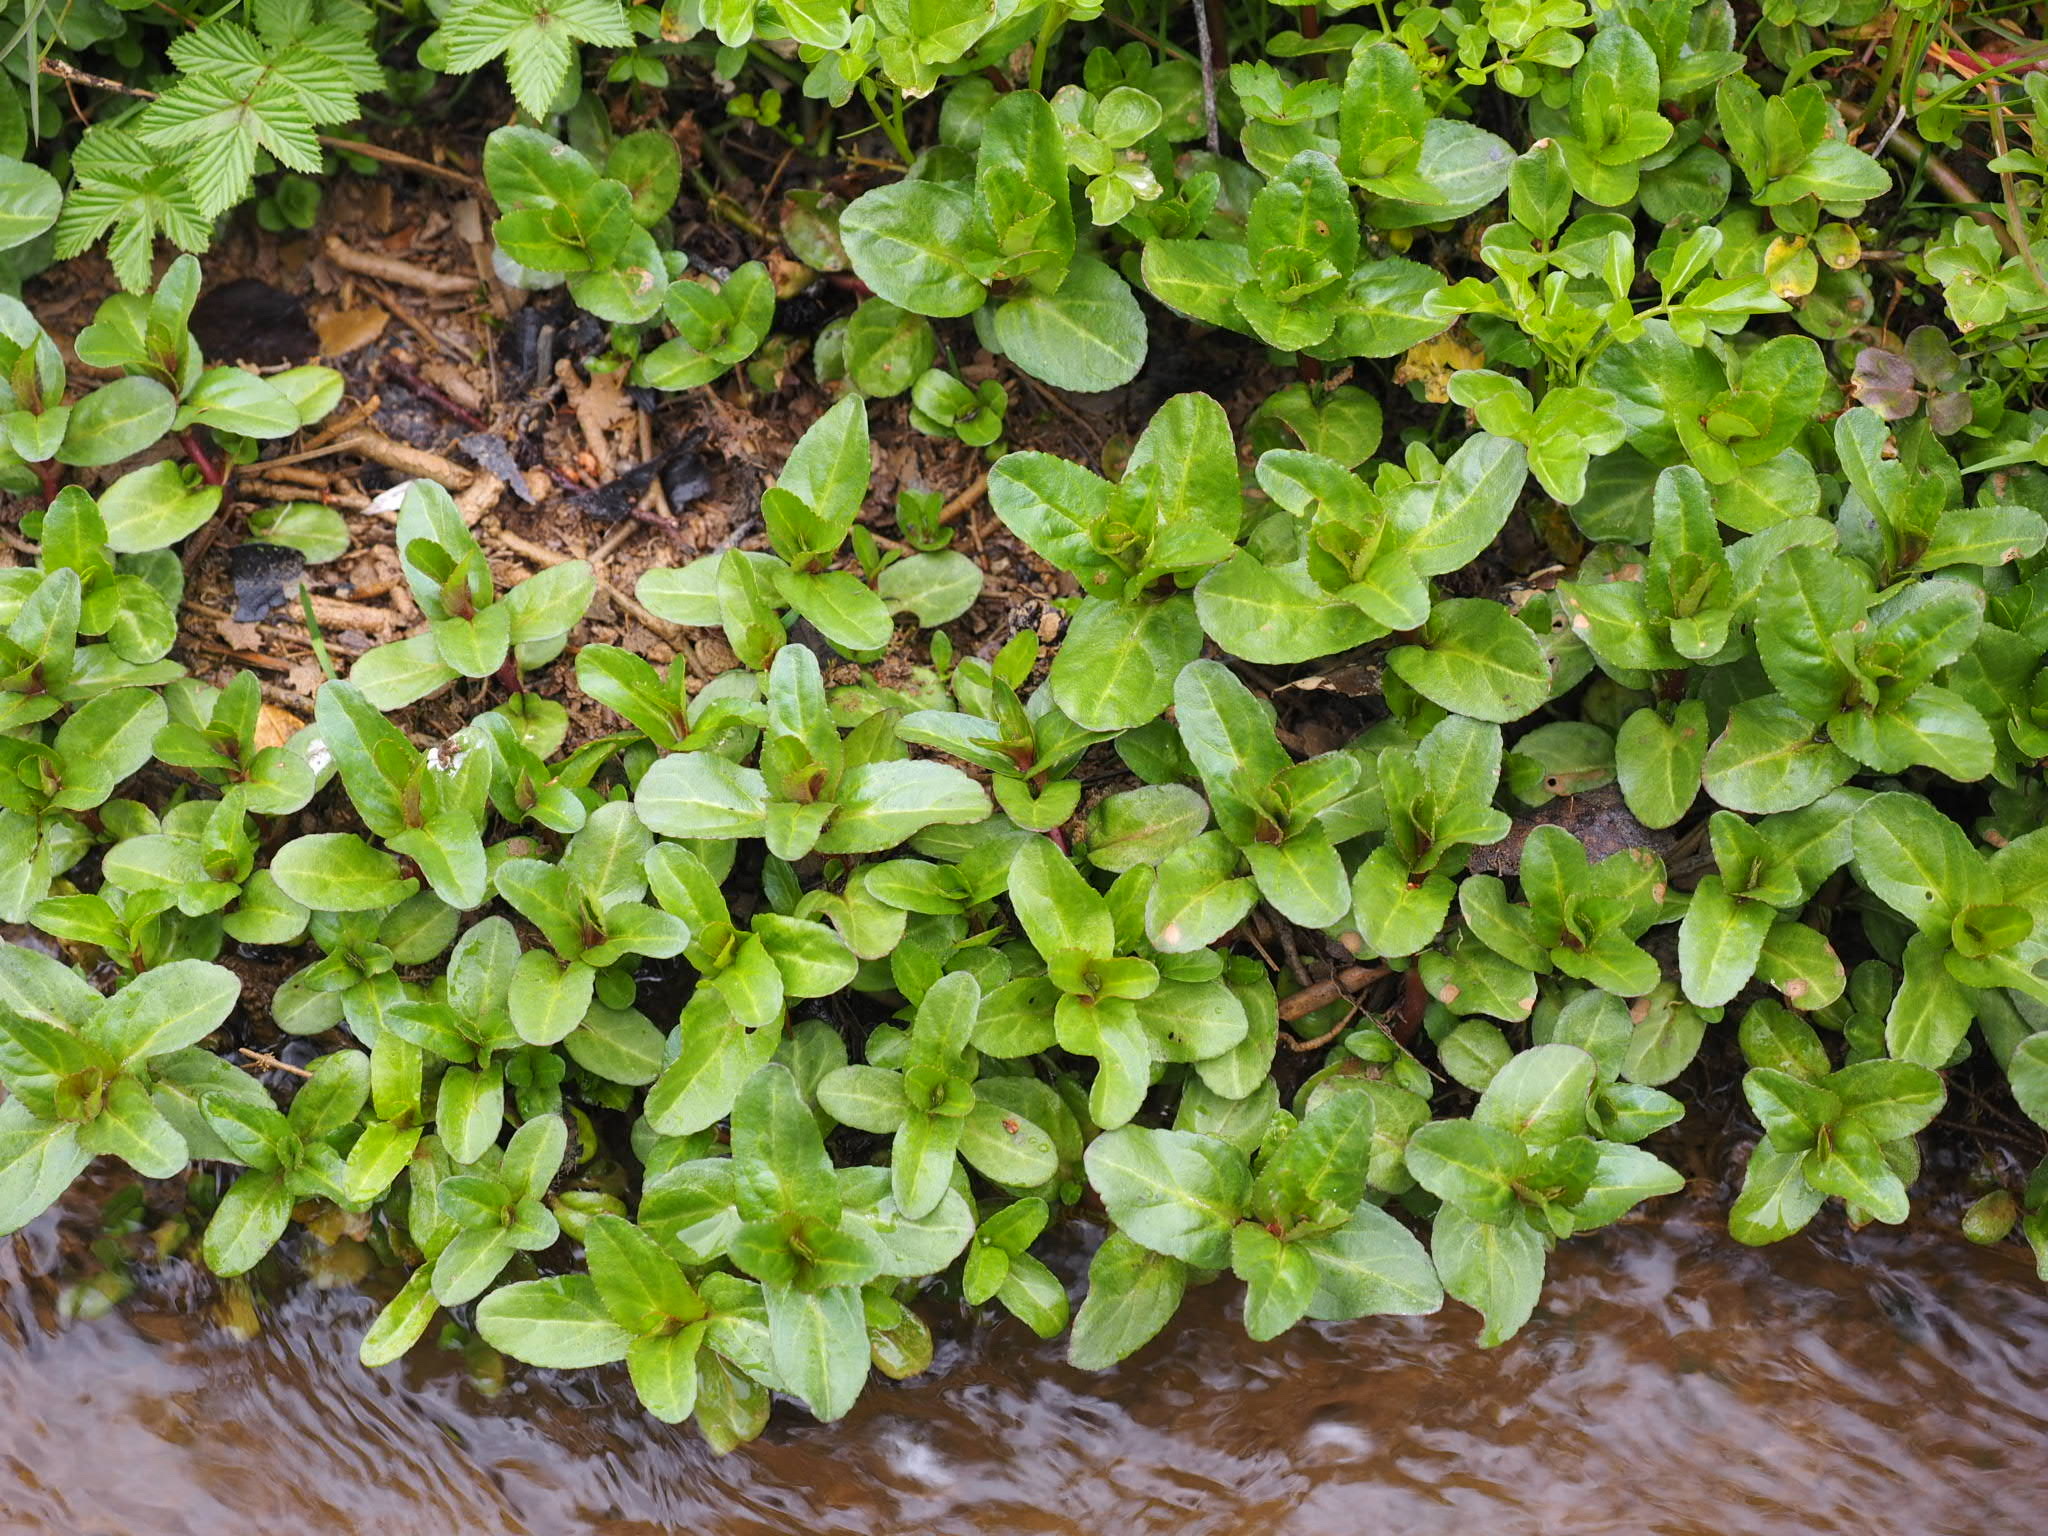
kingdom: Plantae
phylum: Tracheophyta
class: Magnoliopsida
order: Lamiales
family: Plantaginaceae
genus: Veronica
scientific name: Veronica beccabunga
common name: Brooklime
